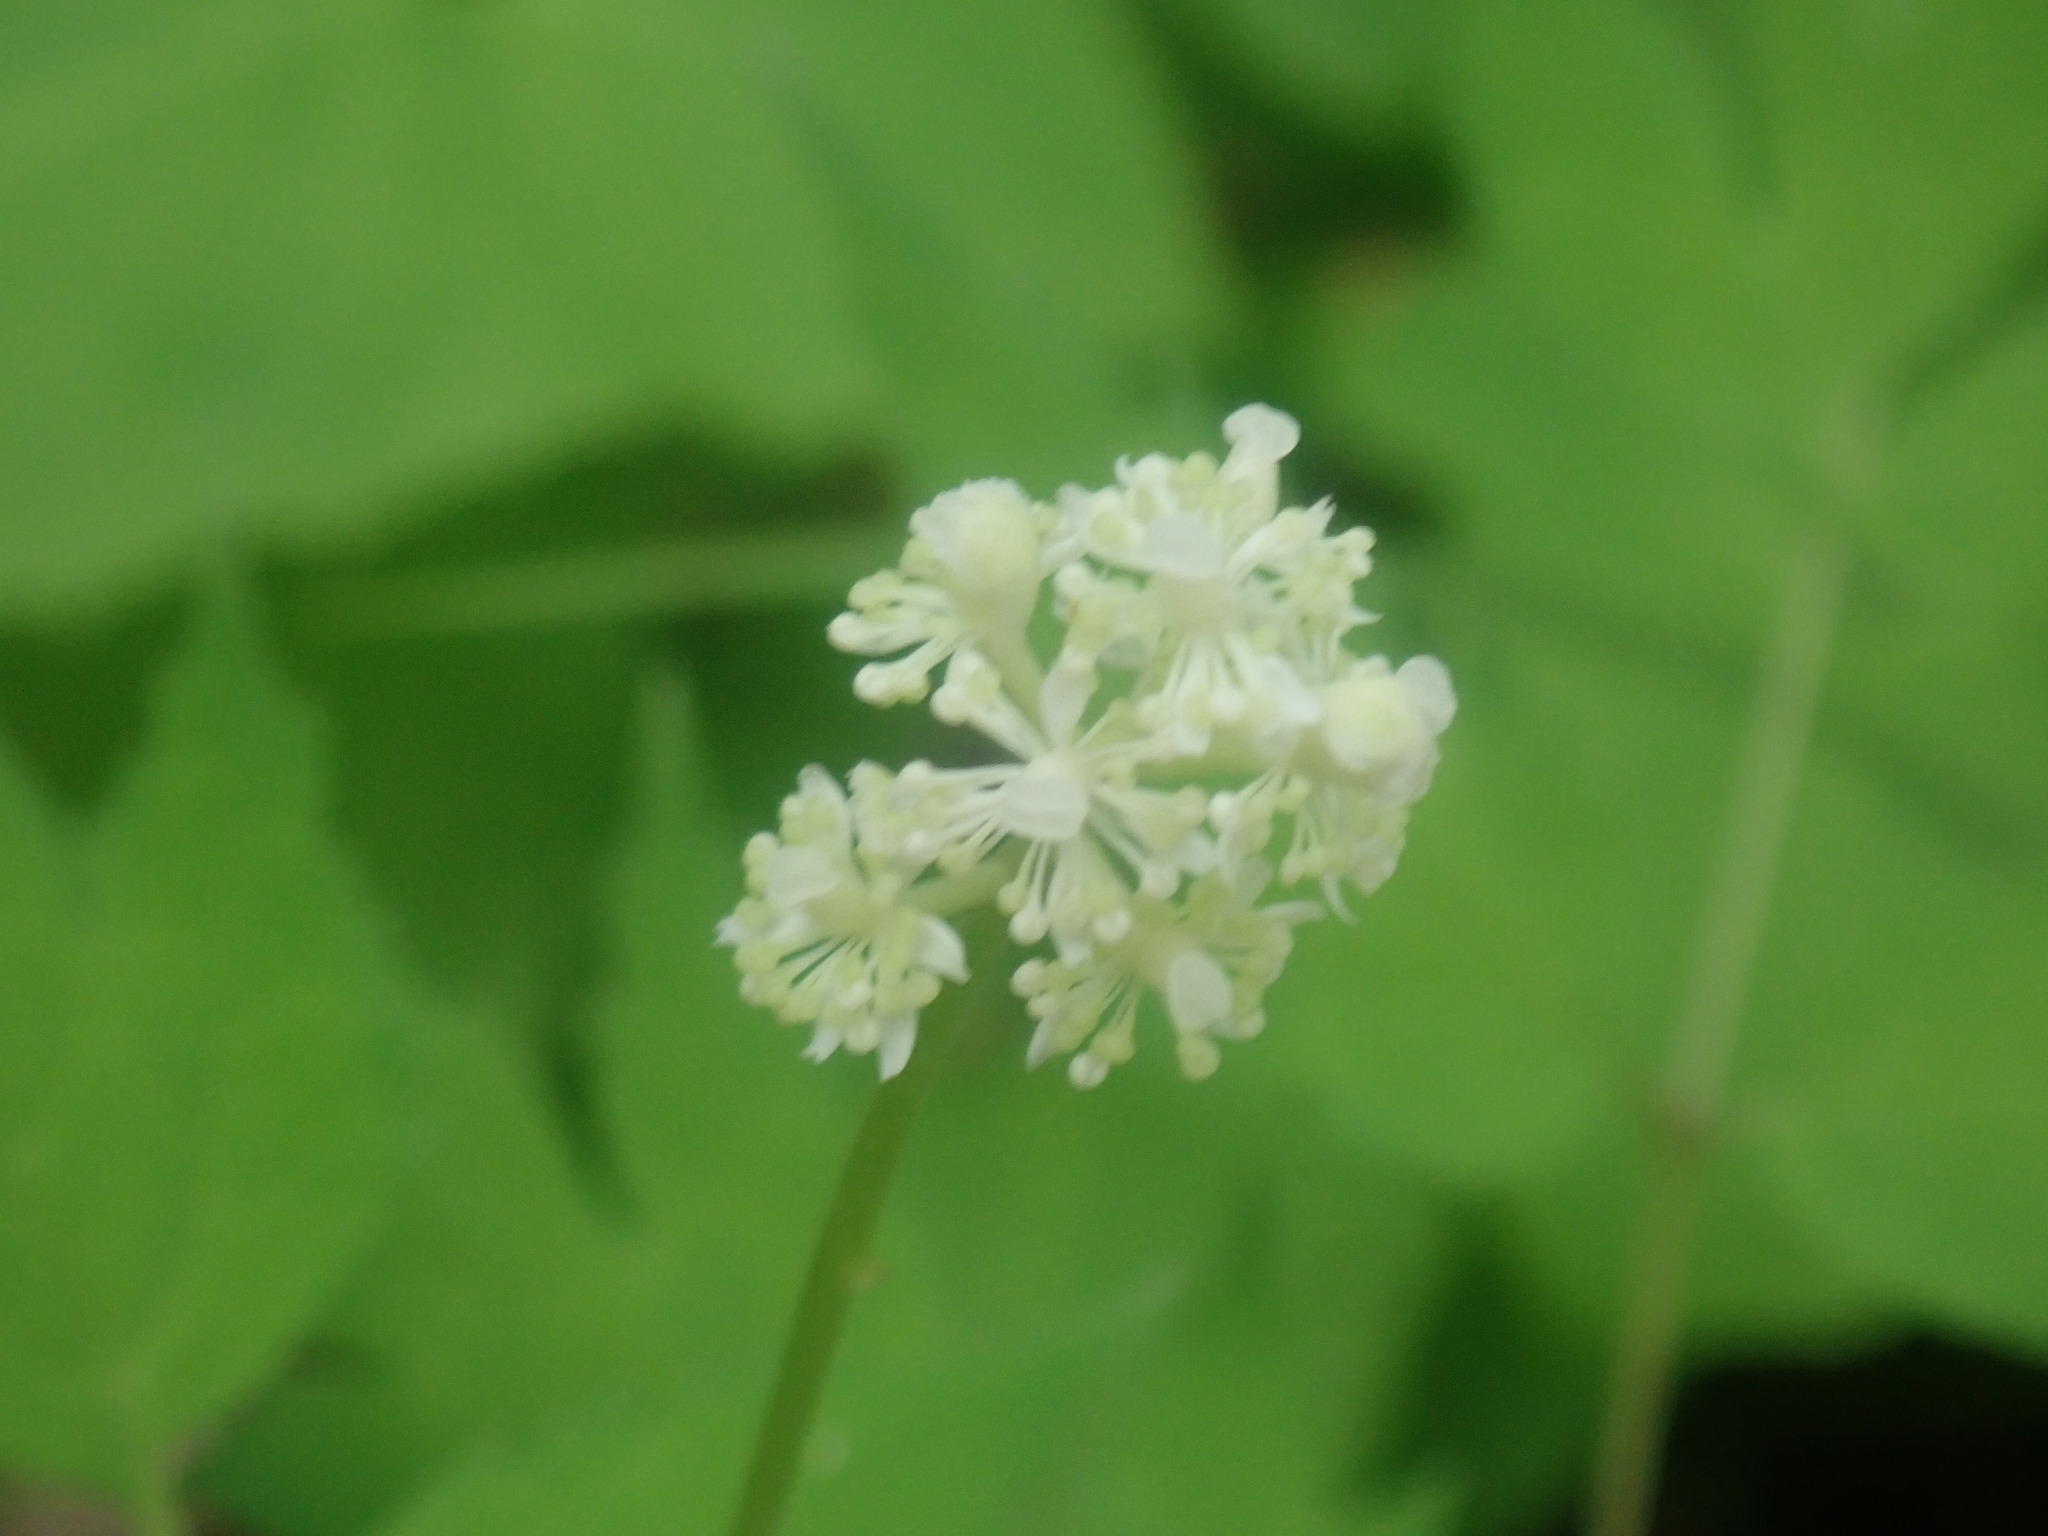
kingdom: Plantae
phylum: Tracheophyta
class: Magnoliopsida
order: Ranunculales
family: Ranunculaceae
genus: Actaea
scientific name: Actaea pachypoda
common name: Doll's-eyes
